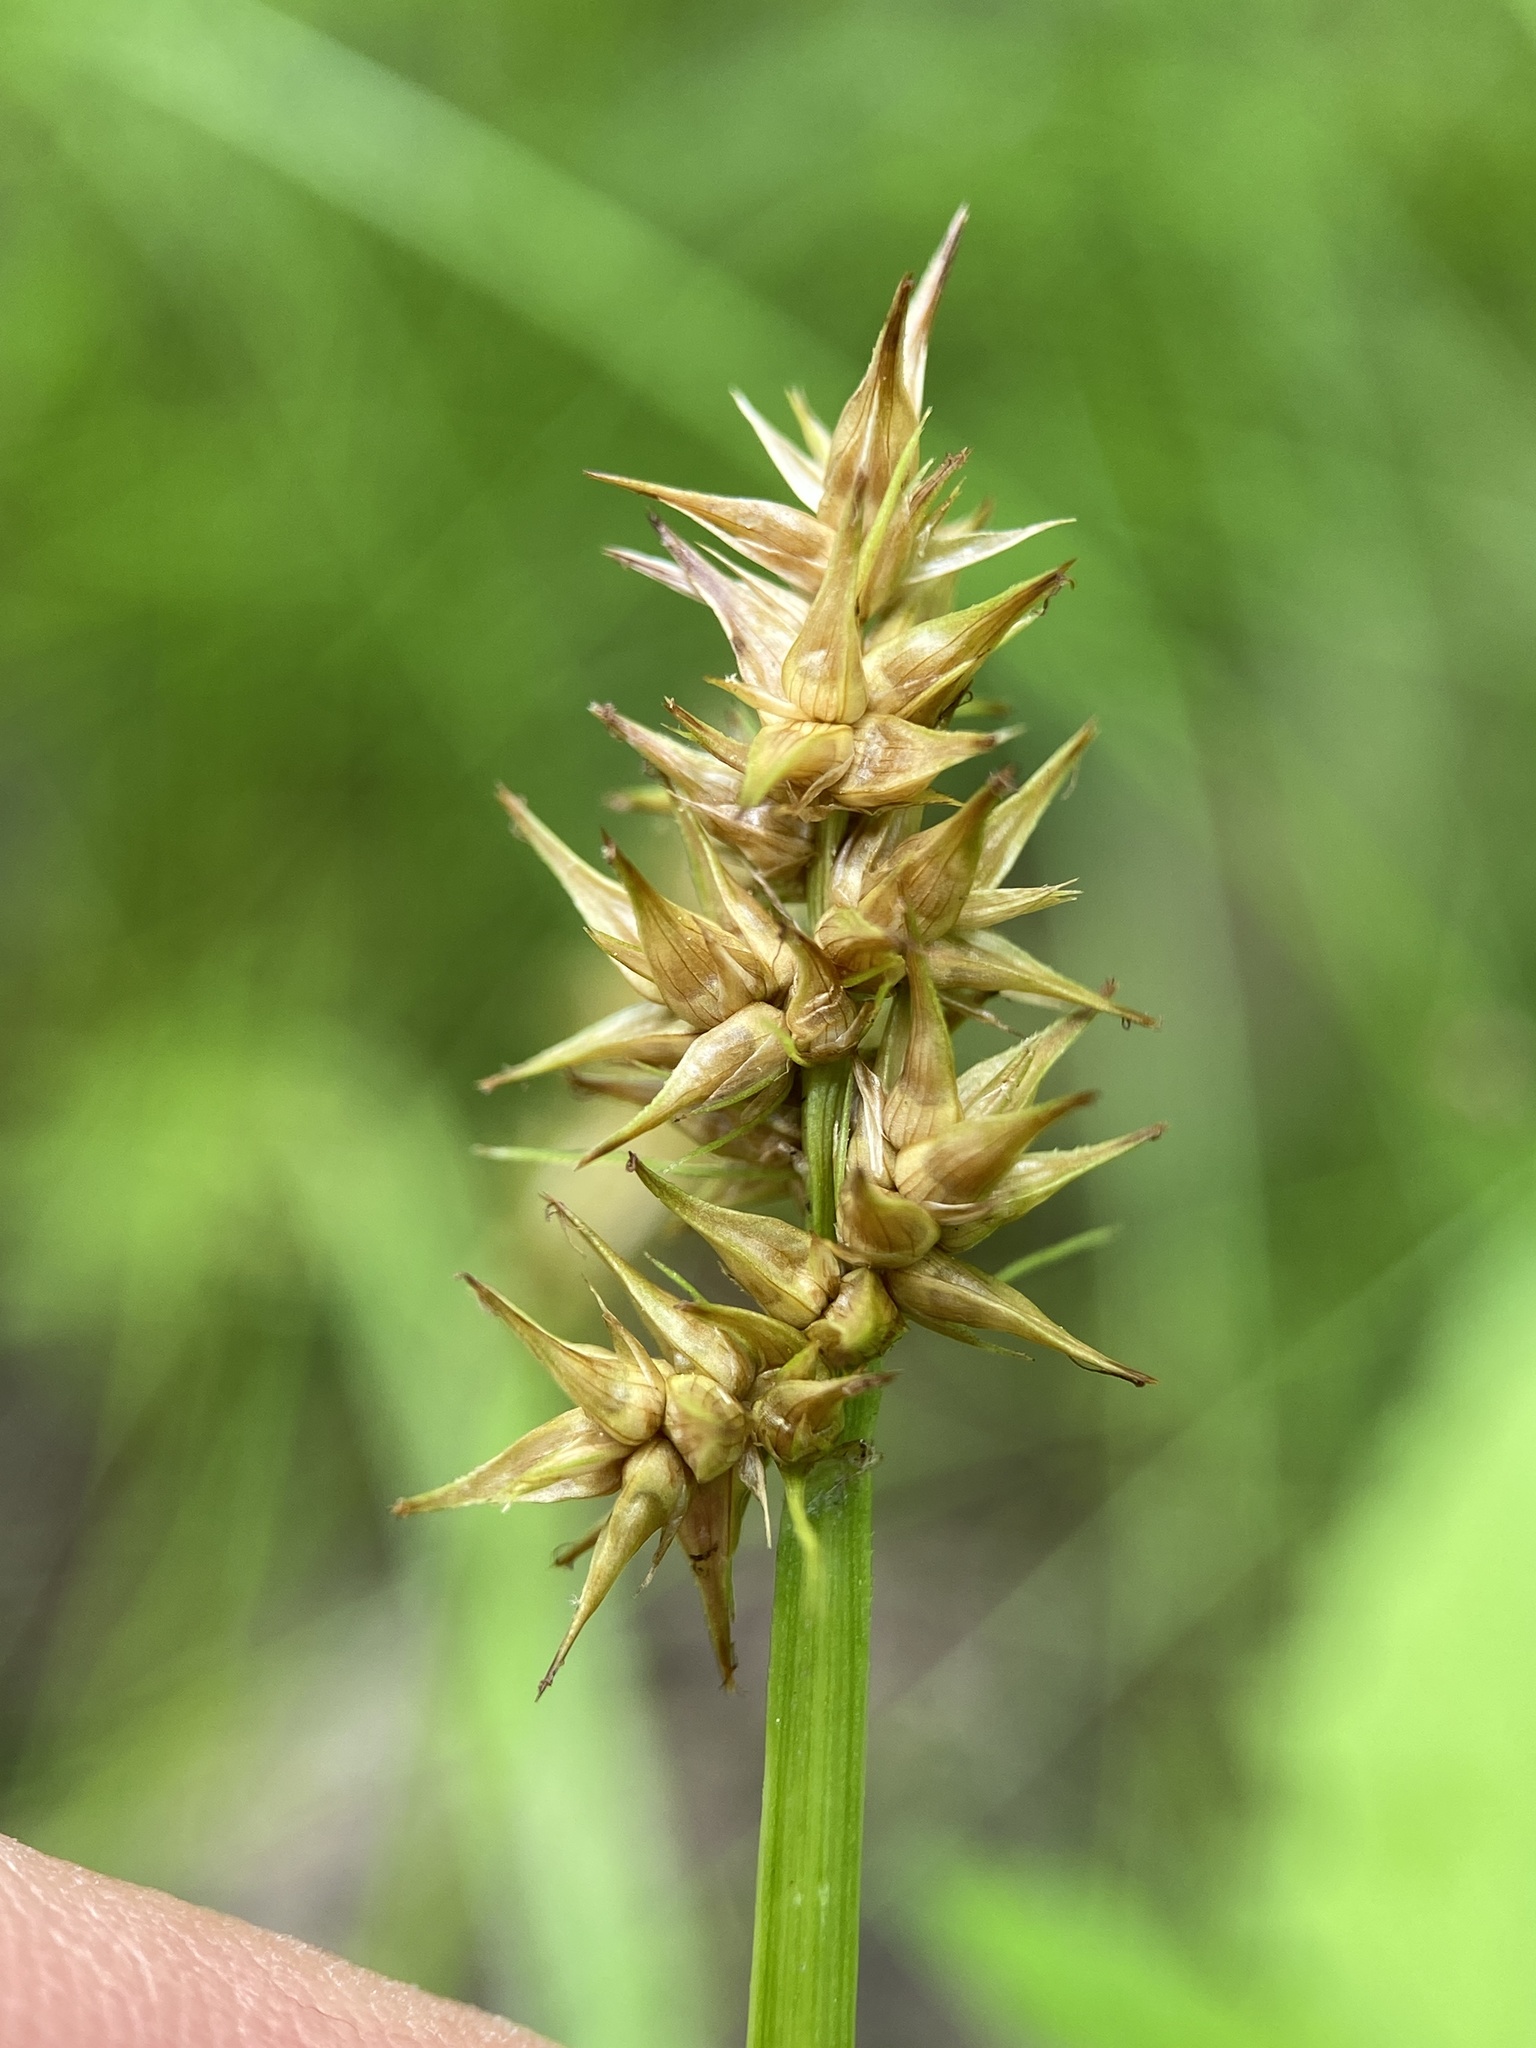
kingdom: Plantae
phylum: Tracheophyta
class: Liliopsida
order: Poales
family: Cyperaceae
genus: Carex
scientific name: Carex laevivaginata
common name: Smooth-sheathed fox sedge
